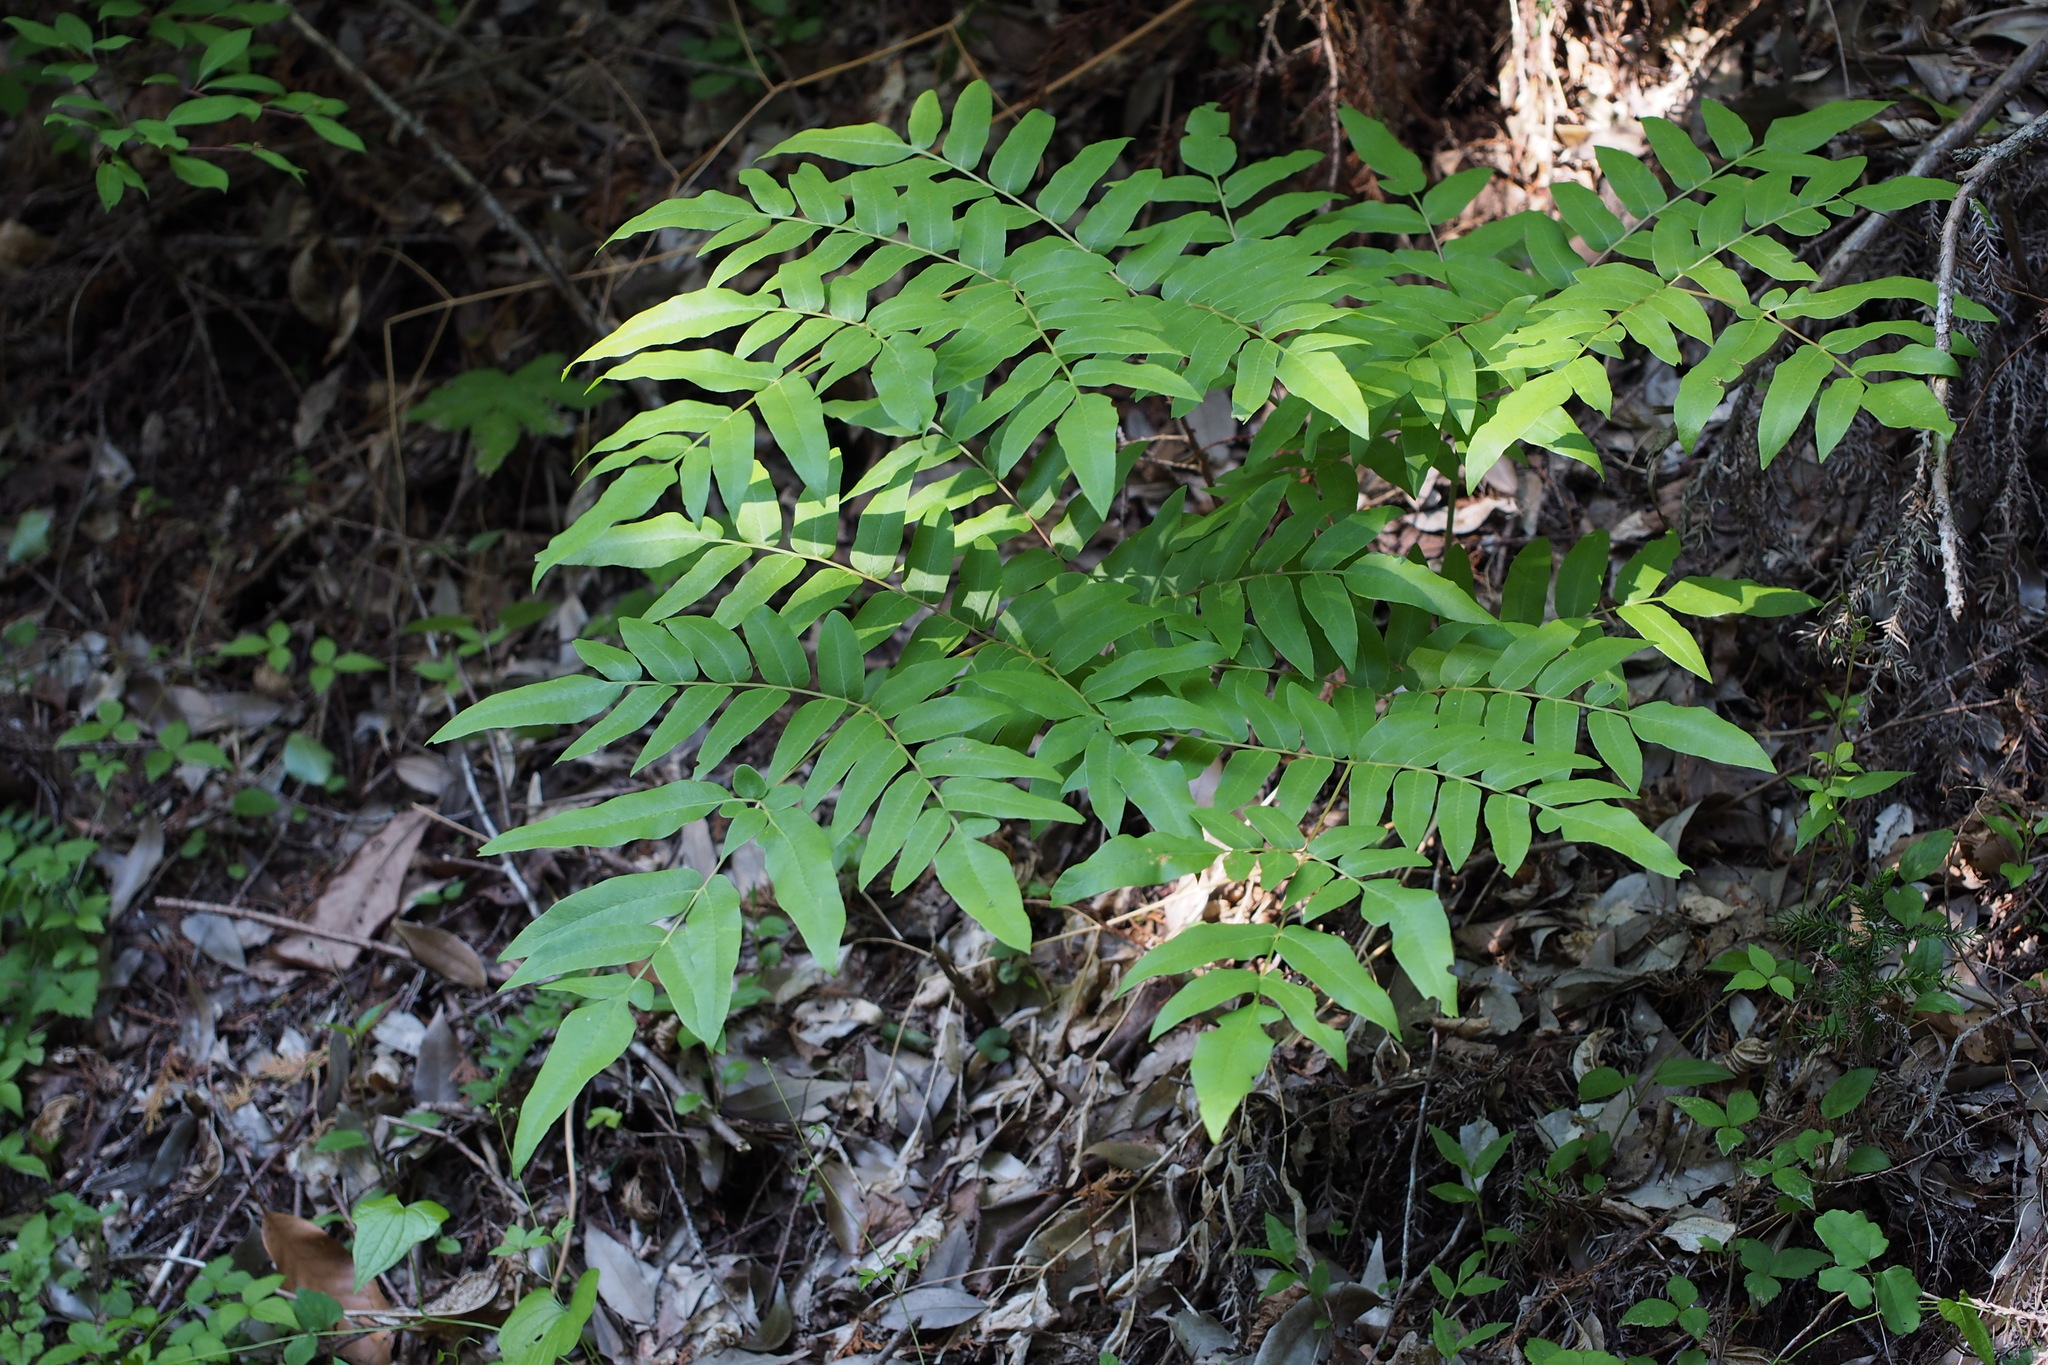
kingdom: Plantae
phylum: Tracheophyta
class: Polypodiopsida
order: Osmundales
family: Osmundaceae
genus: Osmunda
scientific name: Osmunda japonica
